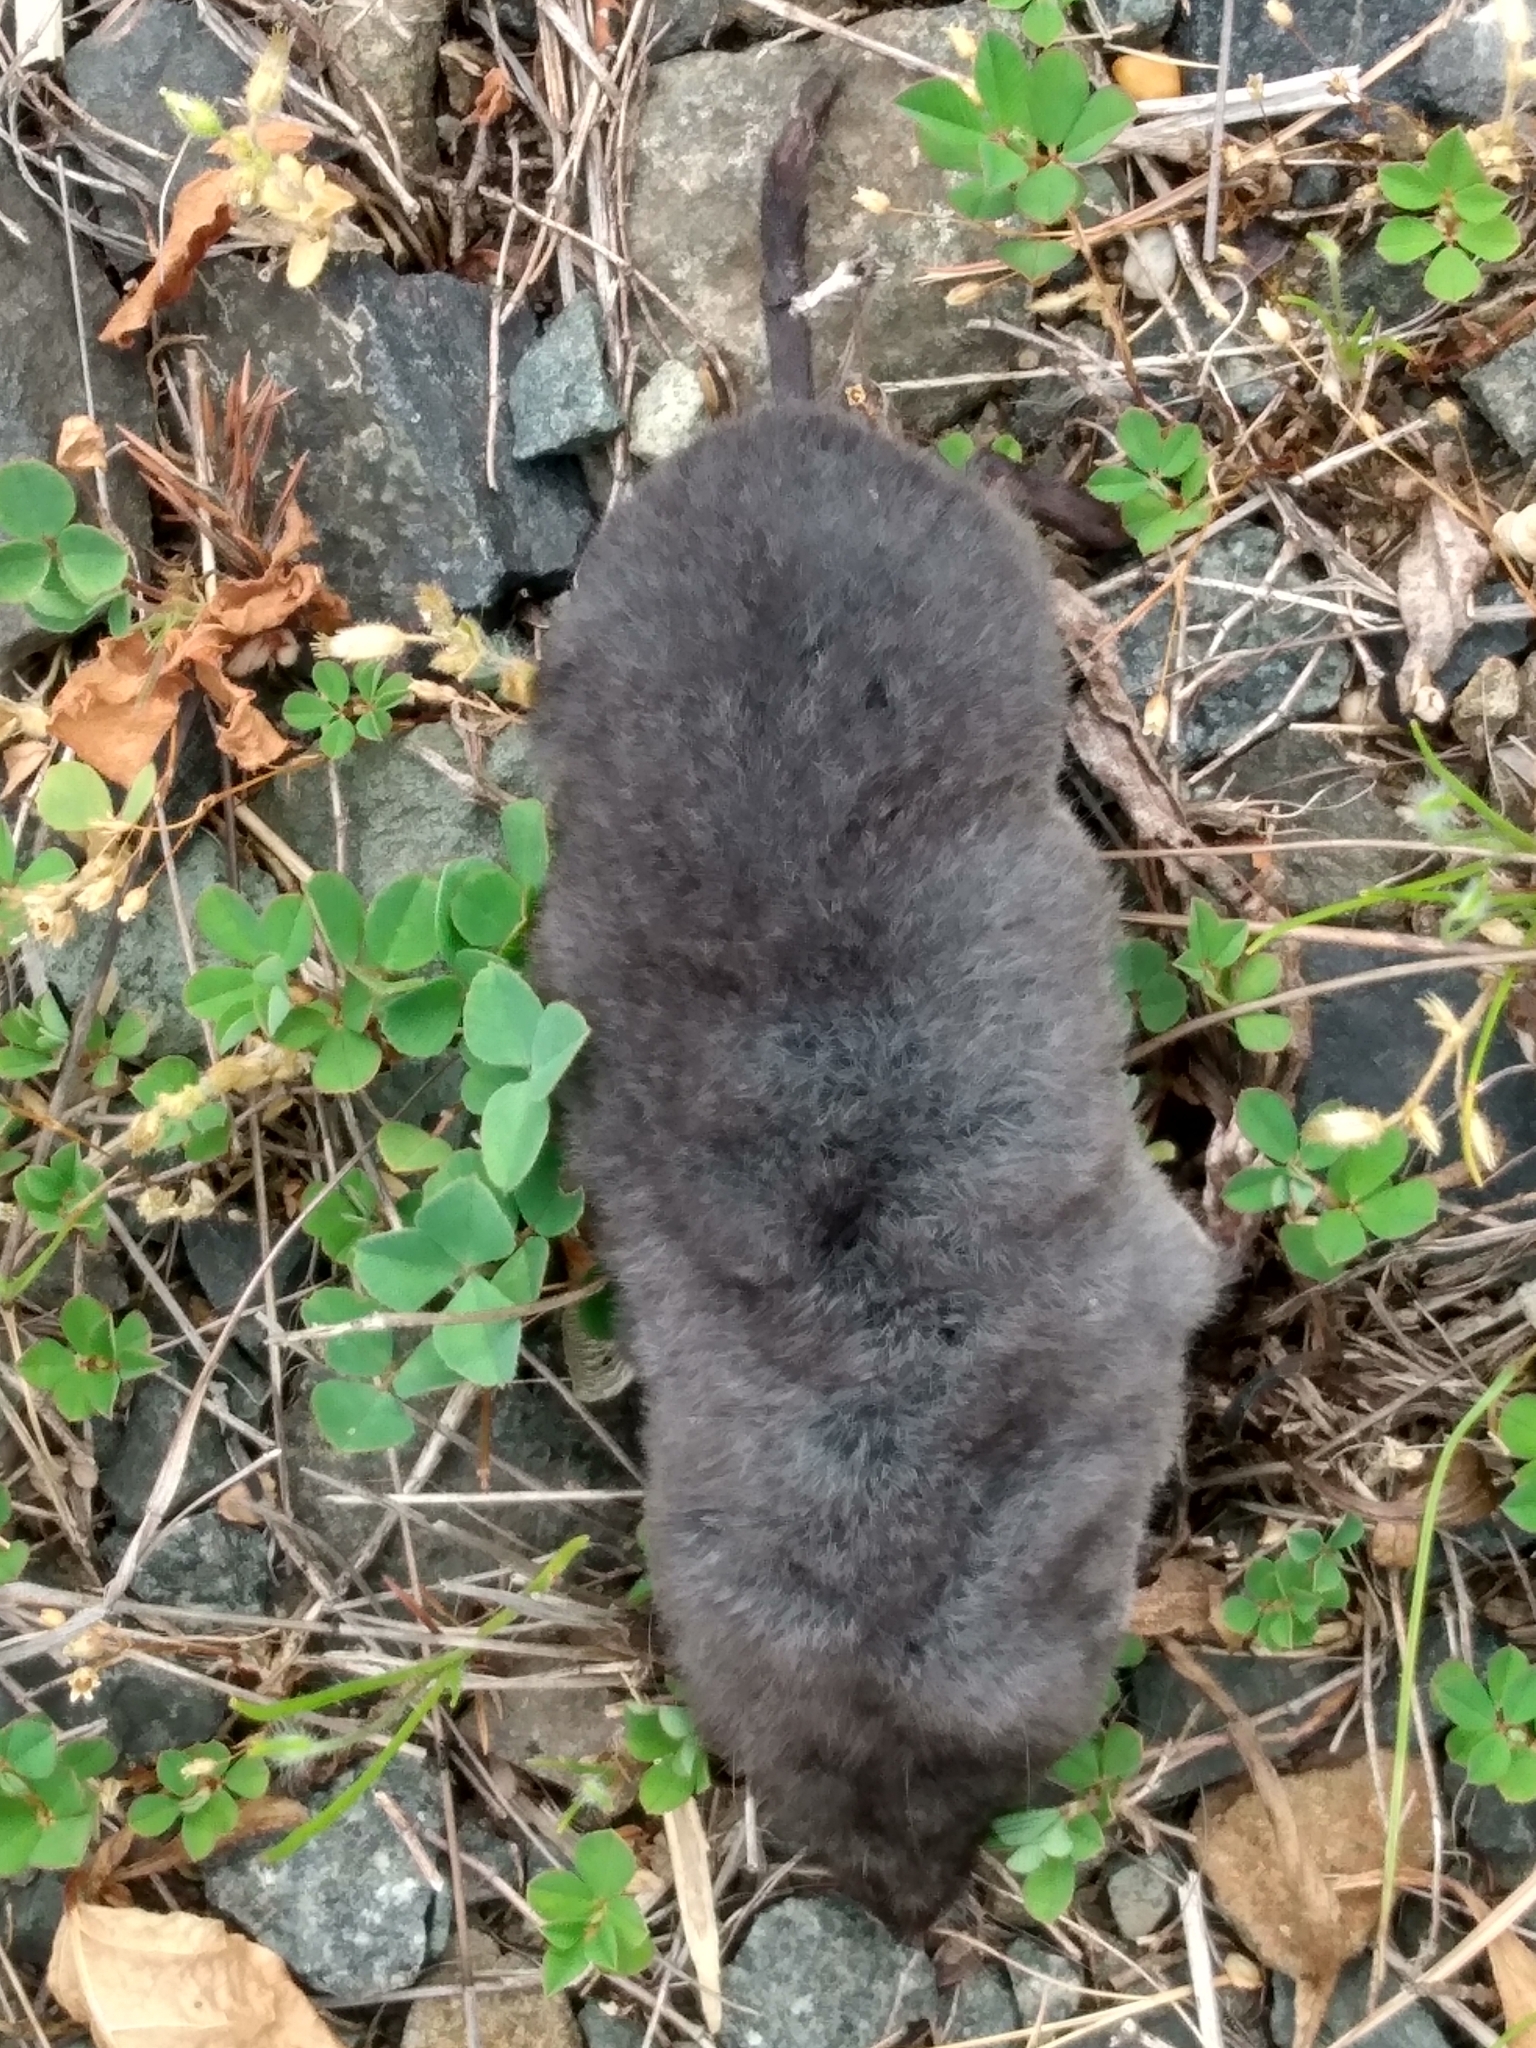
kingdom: Animalia
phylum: Chordata
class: Mammalia
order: Soricomorpha
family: Soricidae
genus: Blarina
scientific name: Blarina brevicauda
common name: Northern short-tailed shrew
